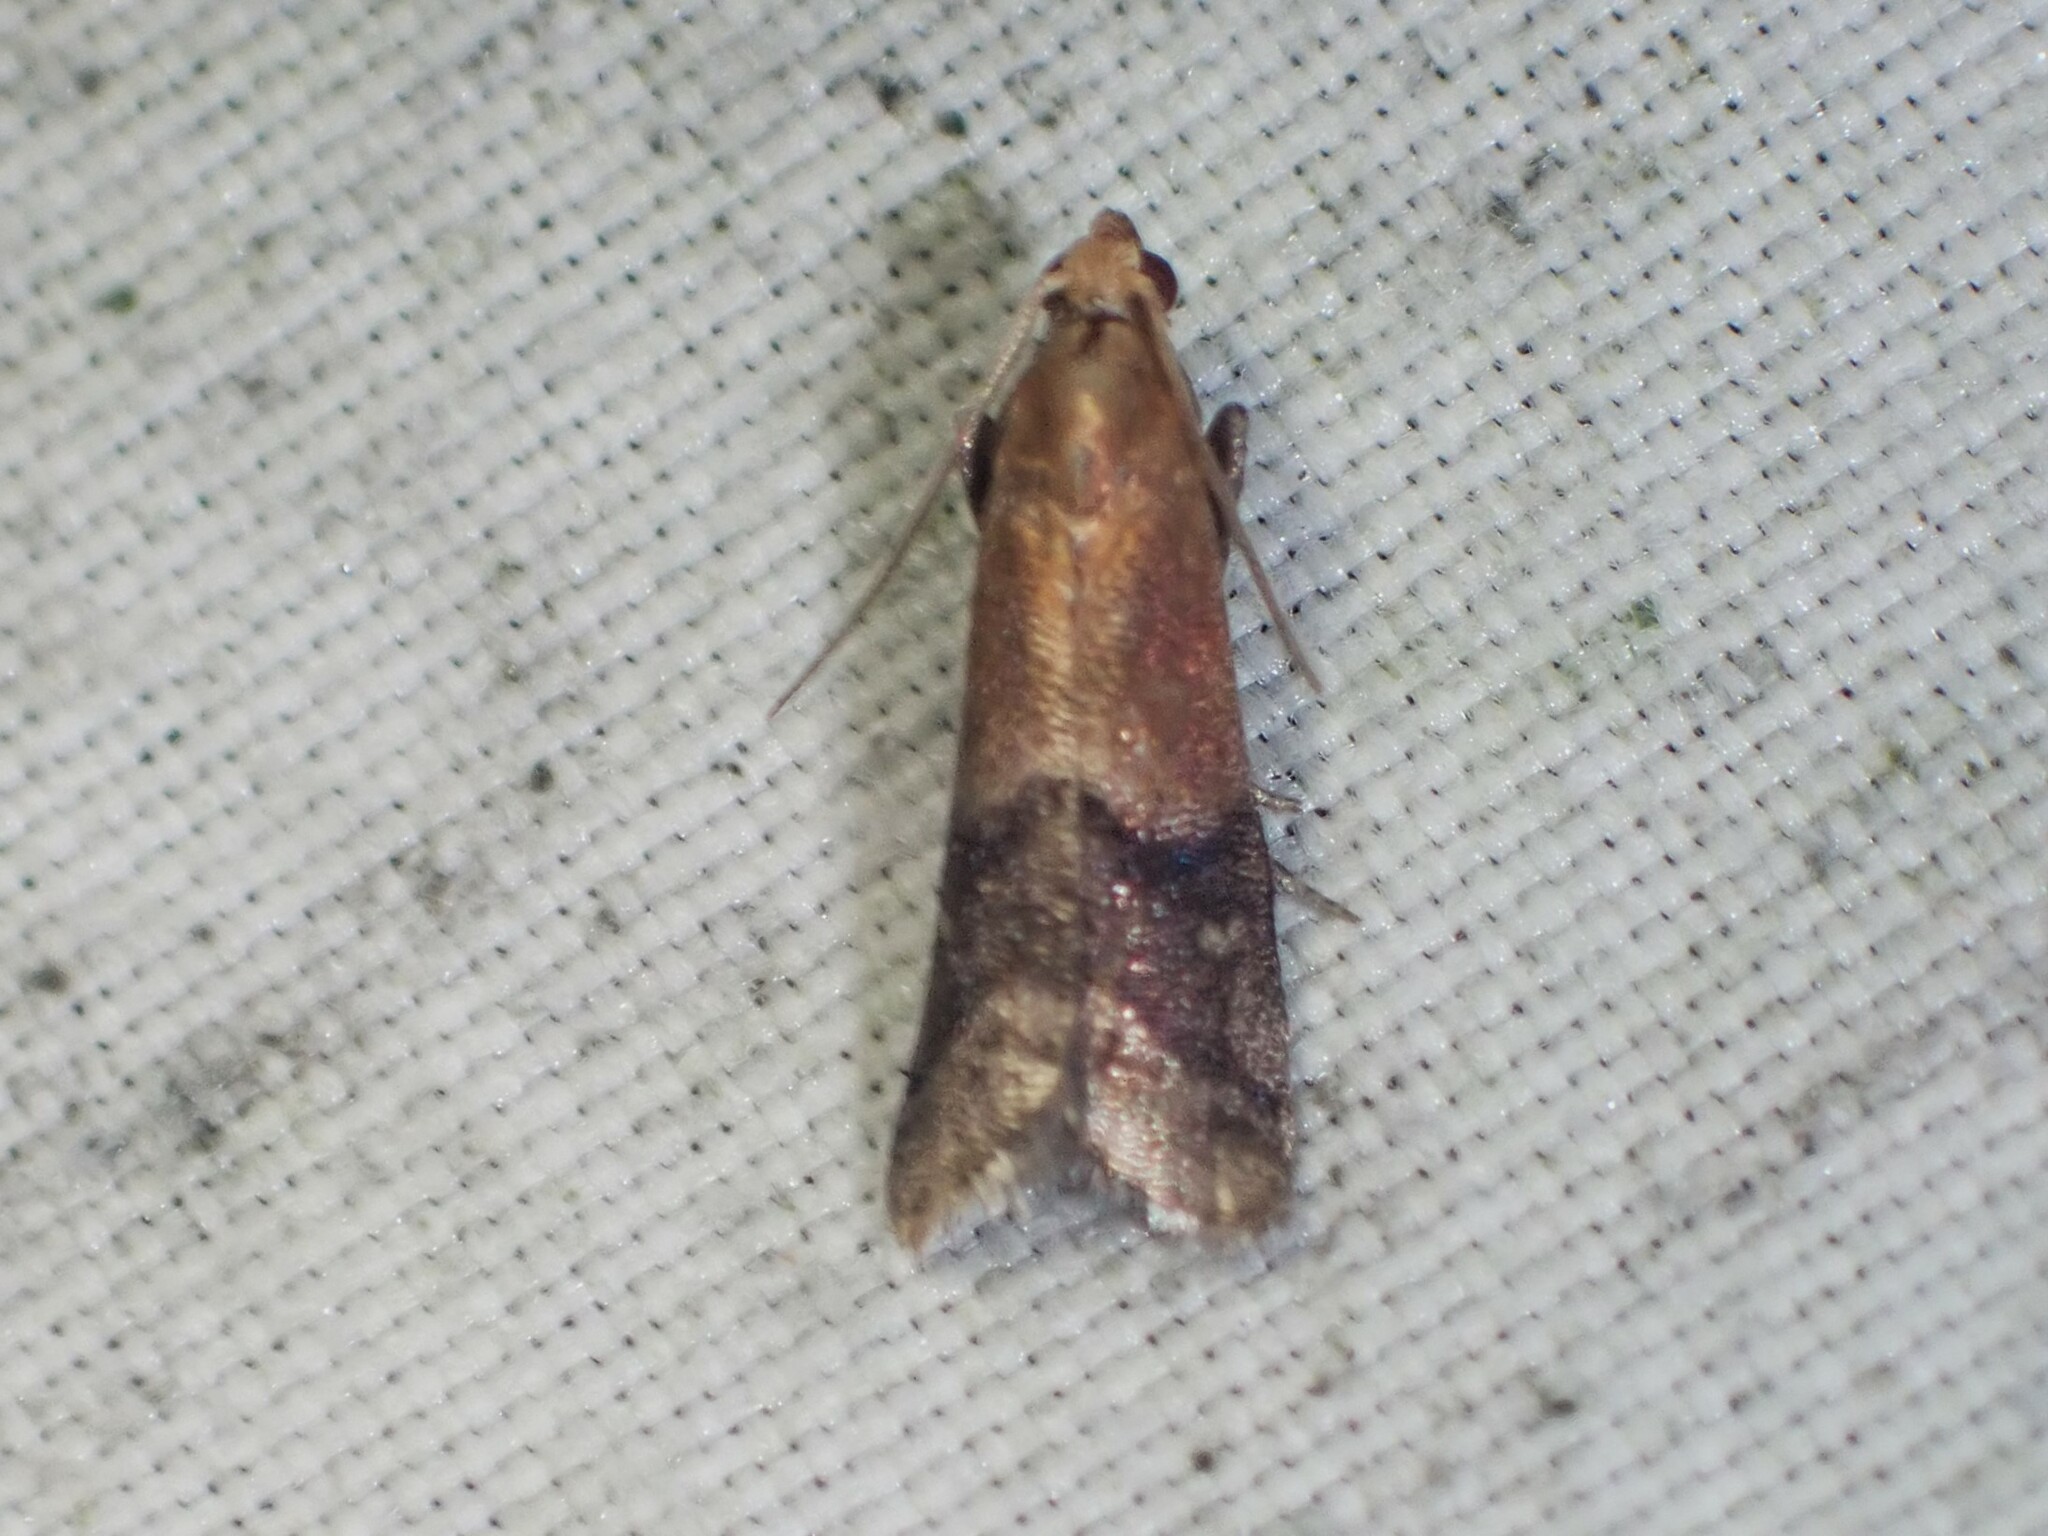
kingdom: Animalia
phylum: Arthropoda
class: Insecta
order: Lepidoptera
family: Pyralidae
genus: Eulogia
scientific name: Eulogia ochrifrontella
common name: Broad-banded eulogia moth
